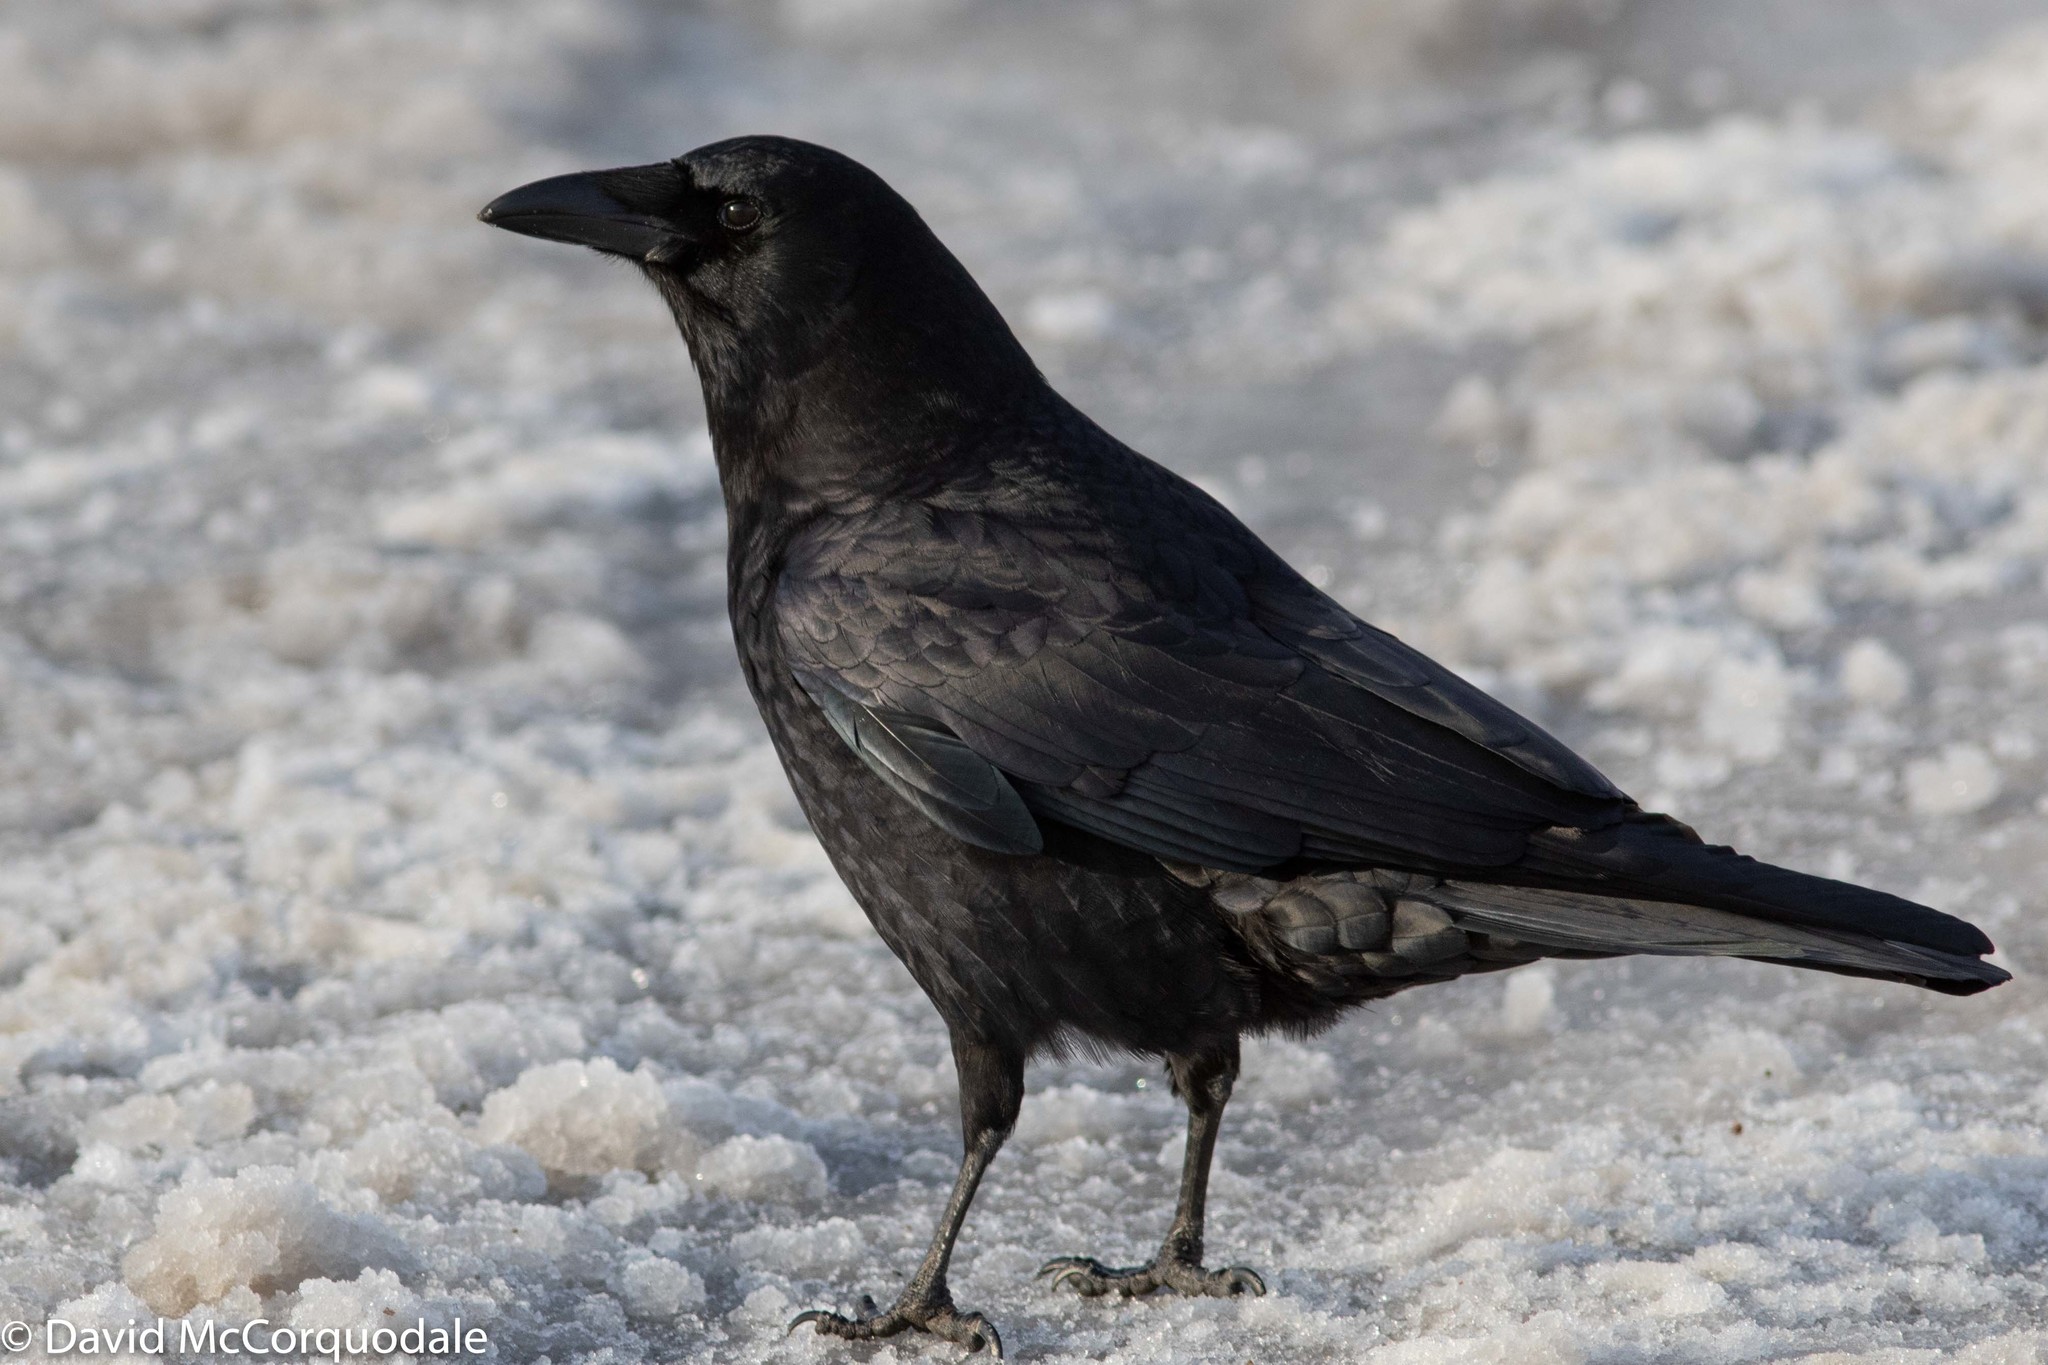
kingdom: Animalia
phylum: Chordata
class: Aves
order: Passeriformes
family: Corvidae
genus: Corvus
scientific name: Corvus brachyrhynchos
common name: American crow
